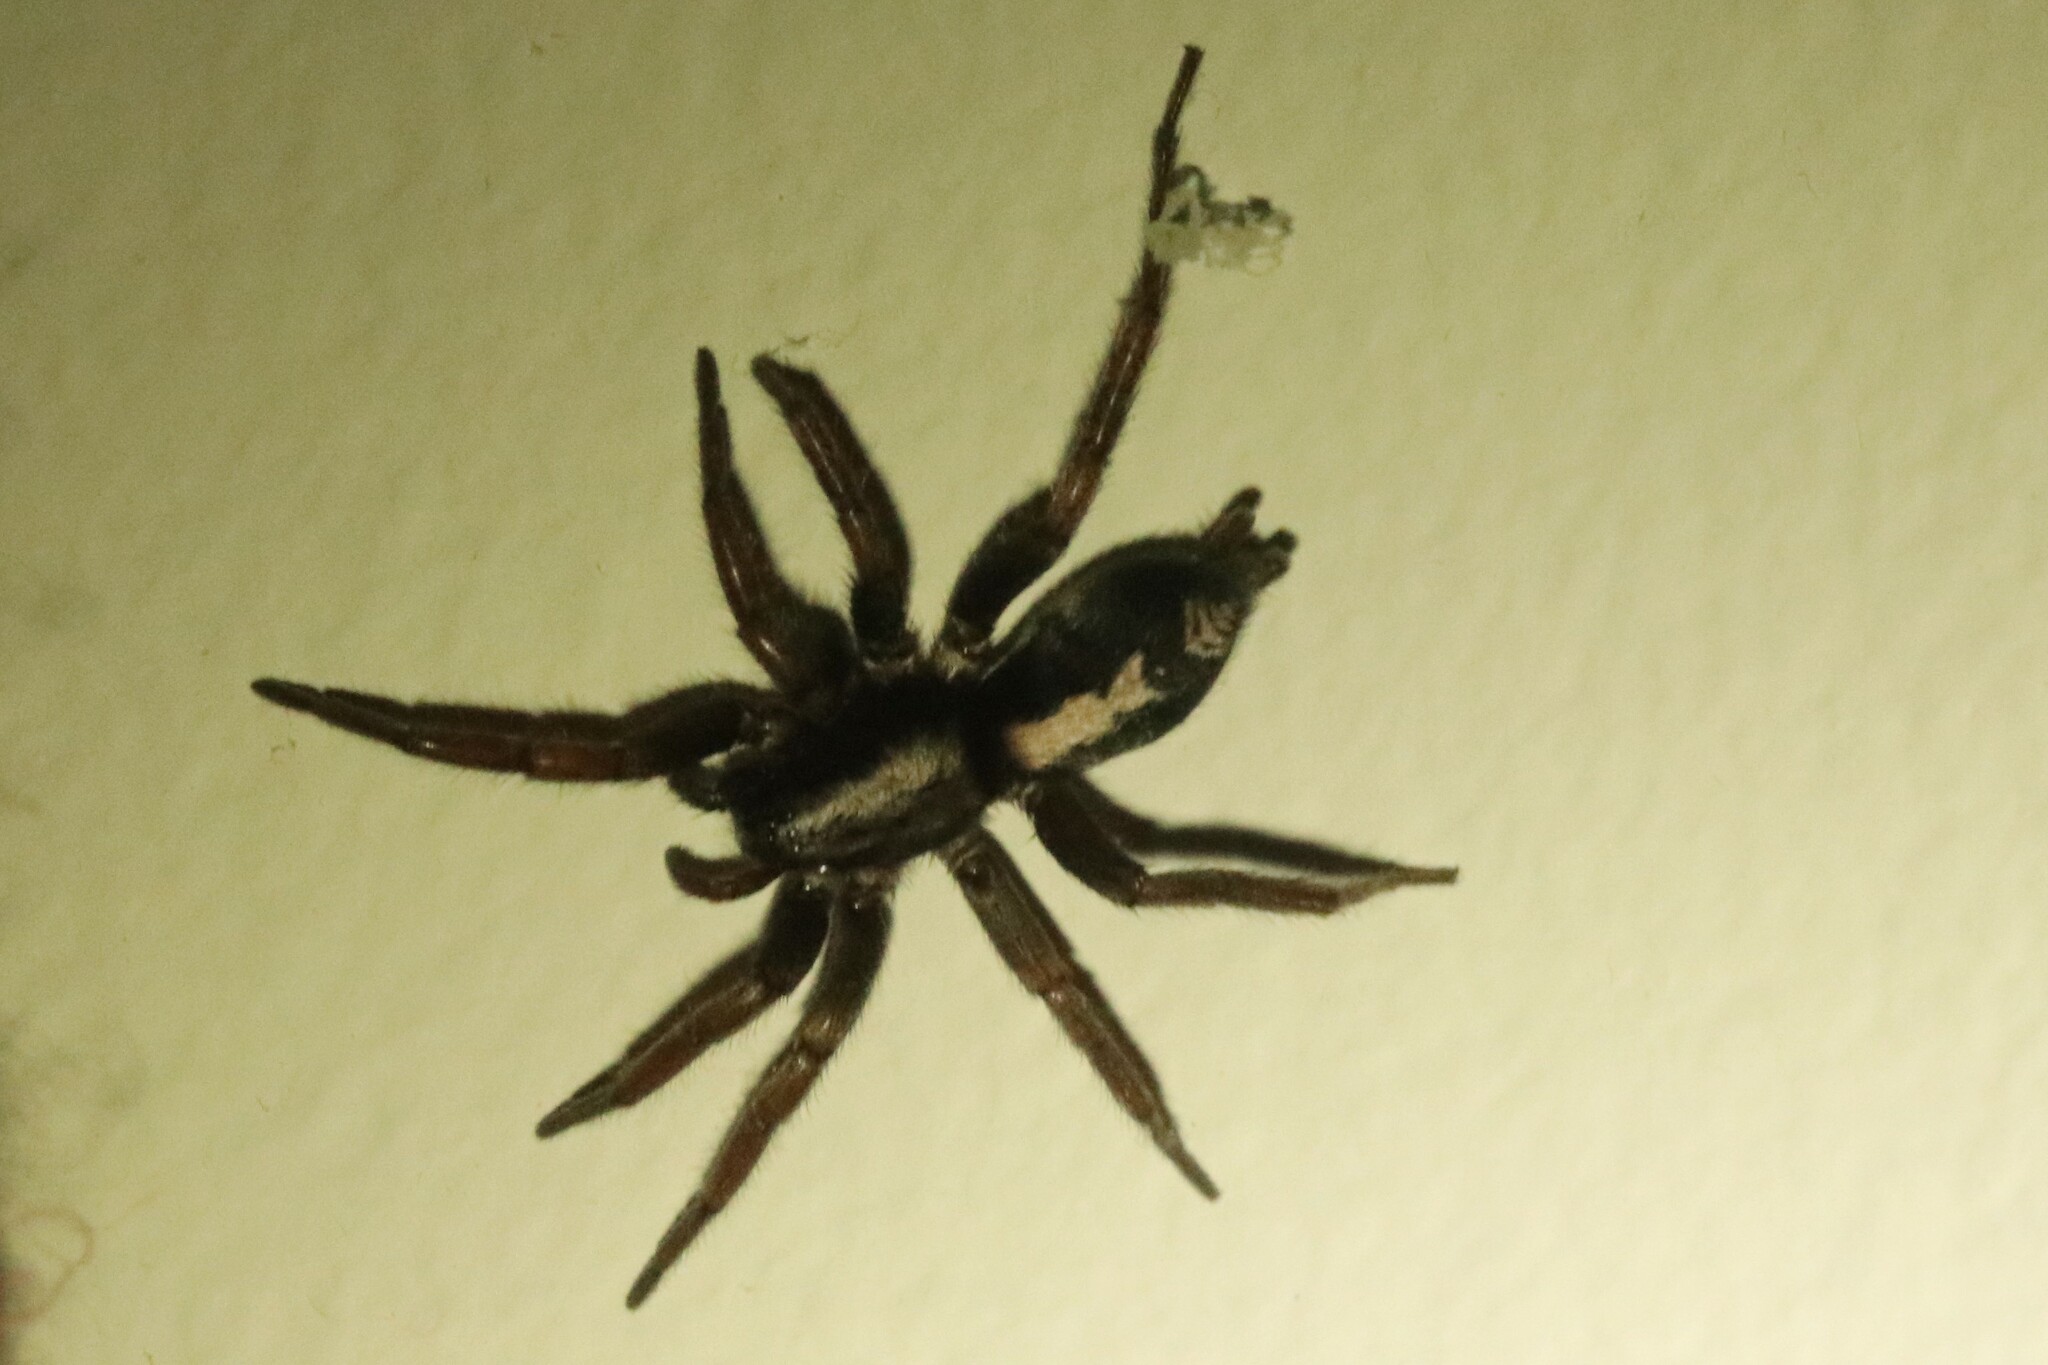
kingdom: Animalia
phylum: Arthropoda
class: Arachnida
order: Araneae
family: Gnaphosidae
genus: Herpyllus
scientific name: Herpyllus ecclesiasticus
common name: Eastern parson spider
